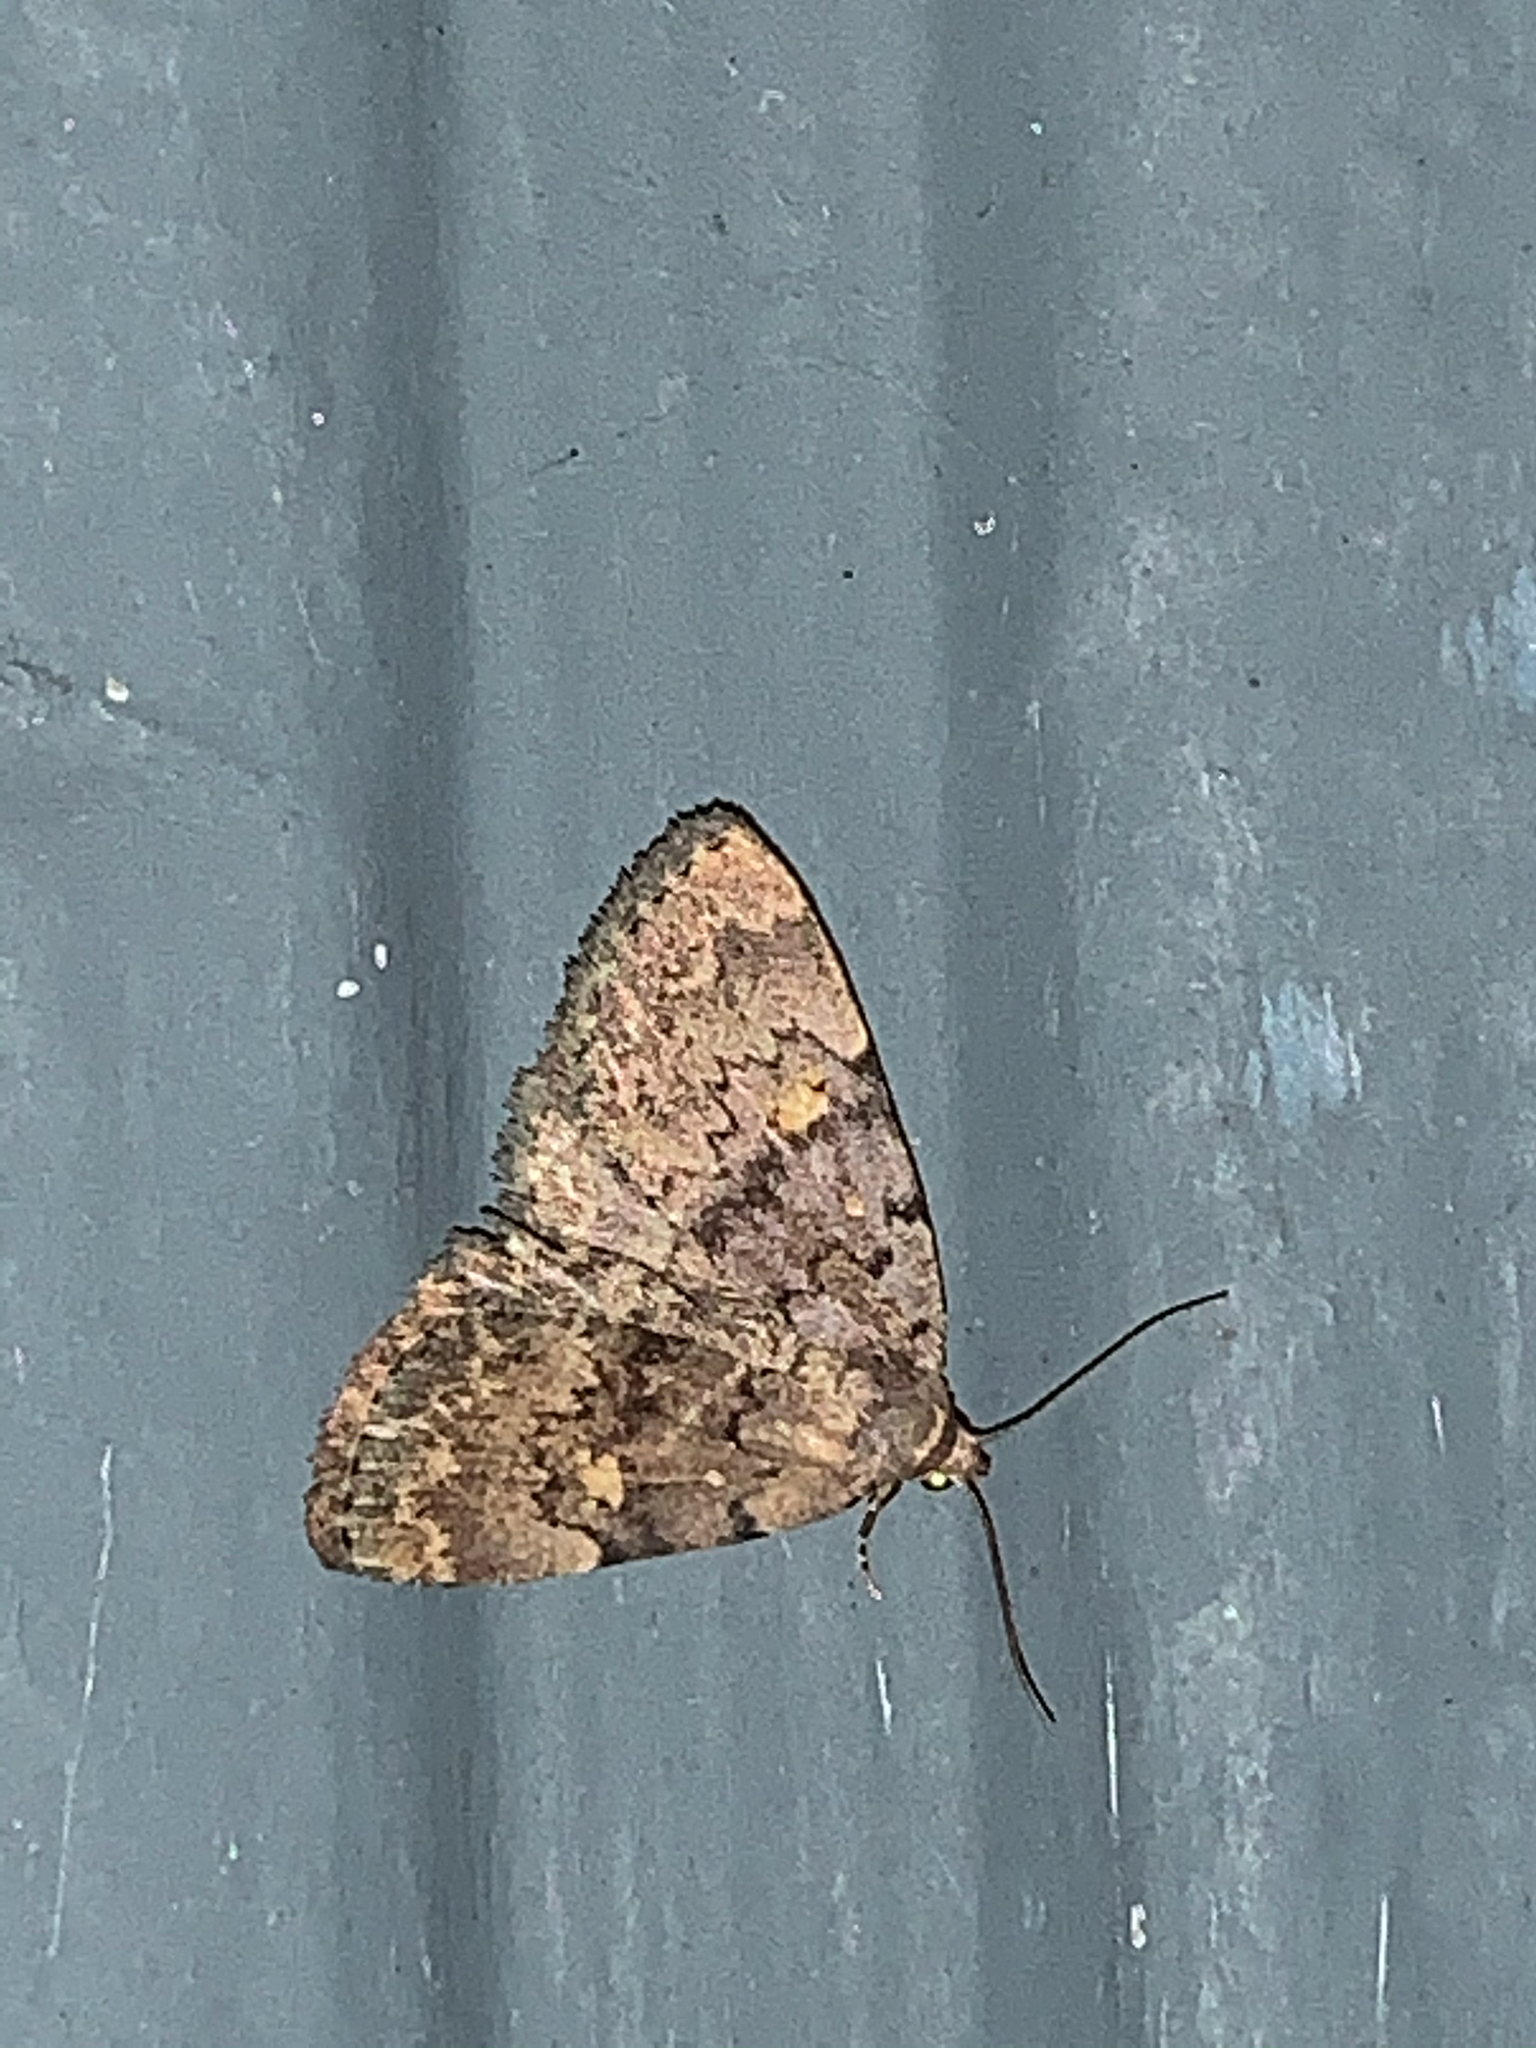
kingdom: Animalia
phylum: Arthropoda
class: Insecta
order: Lepidoptera
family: Erebidae
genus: Idia
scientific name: Idia aemula
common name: Common idia moth
